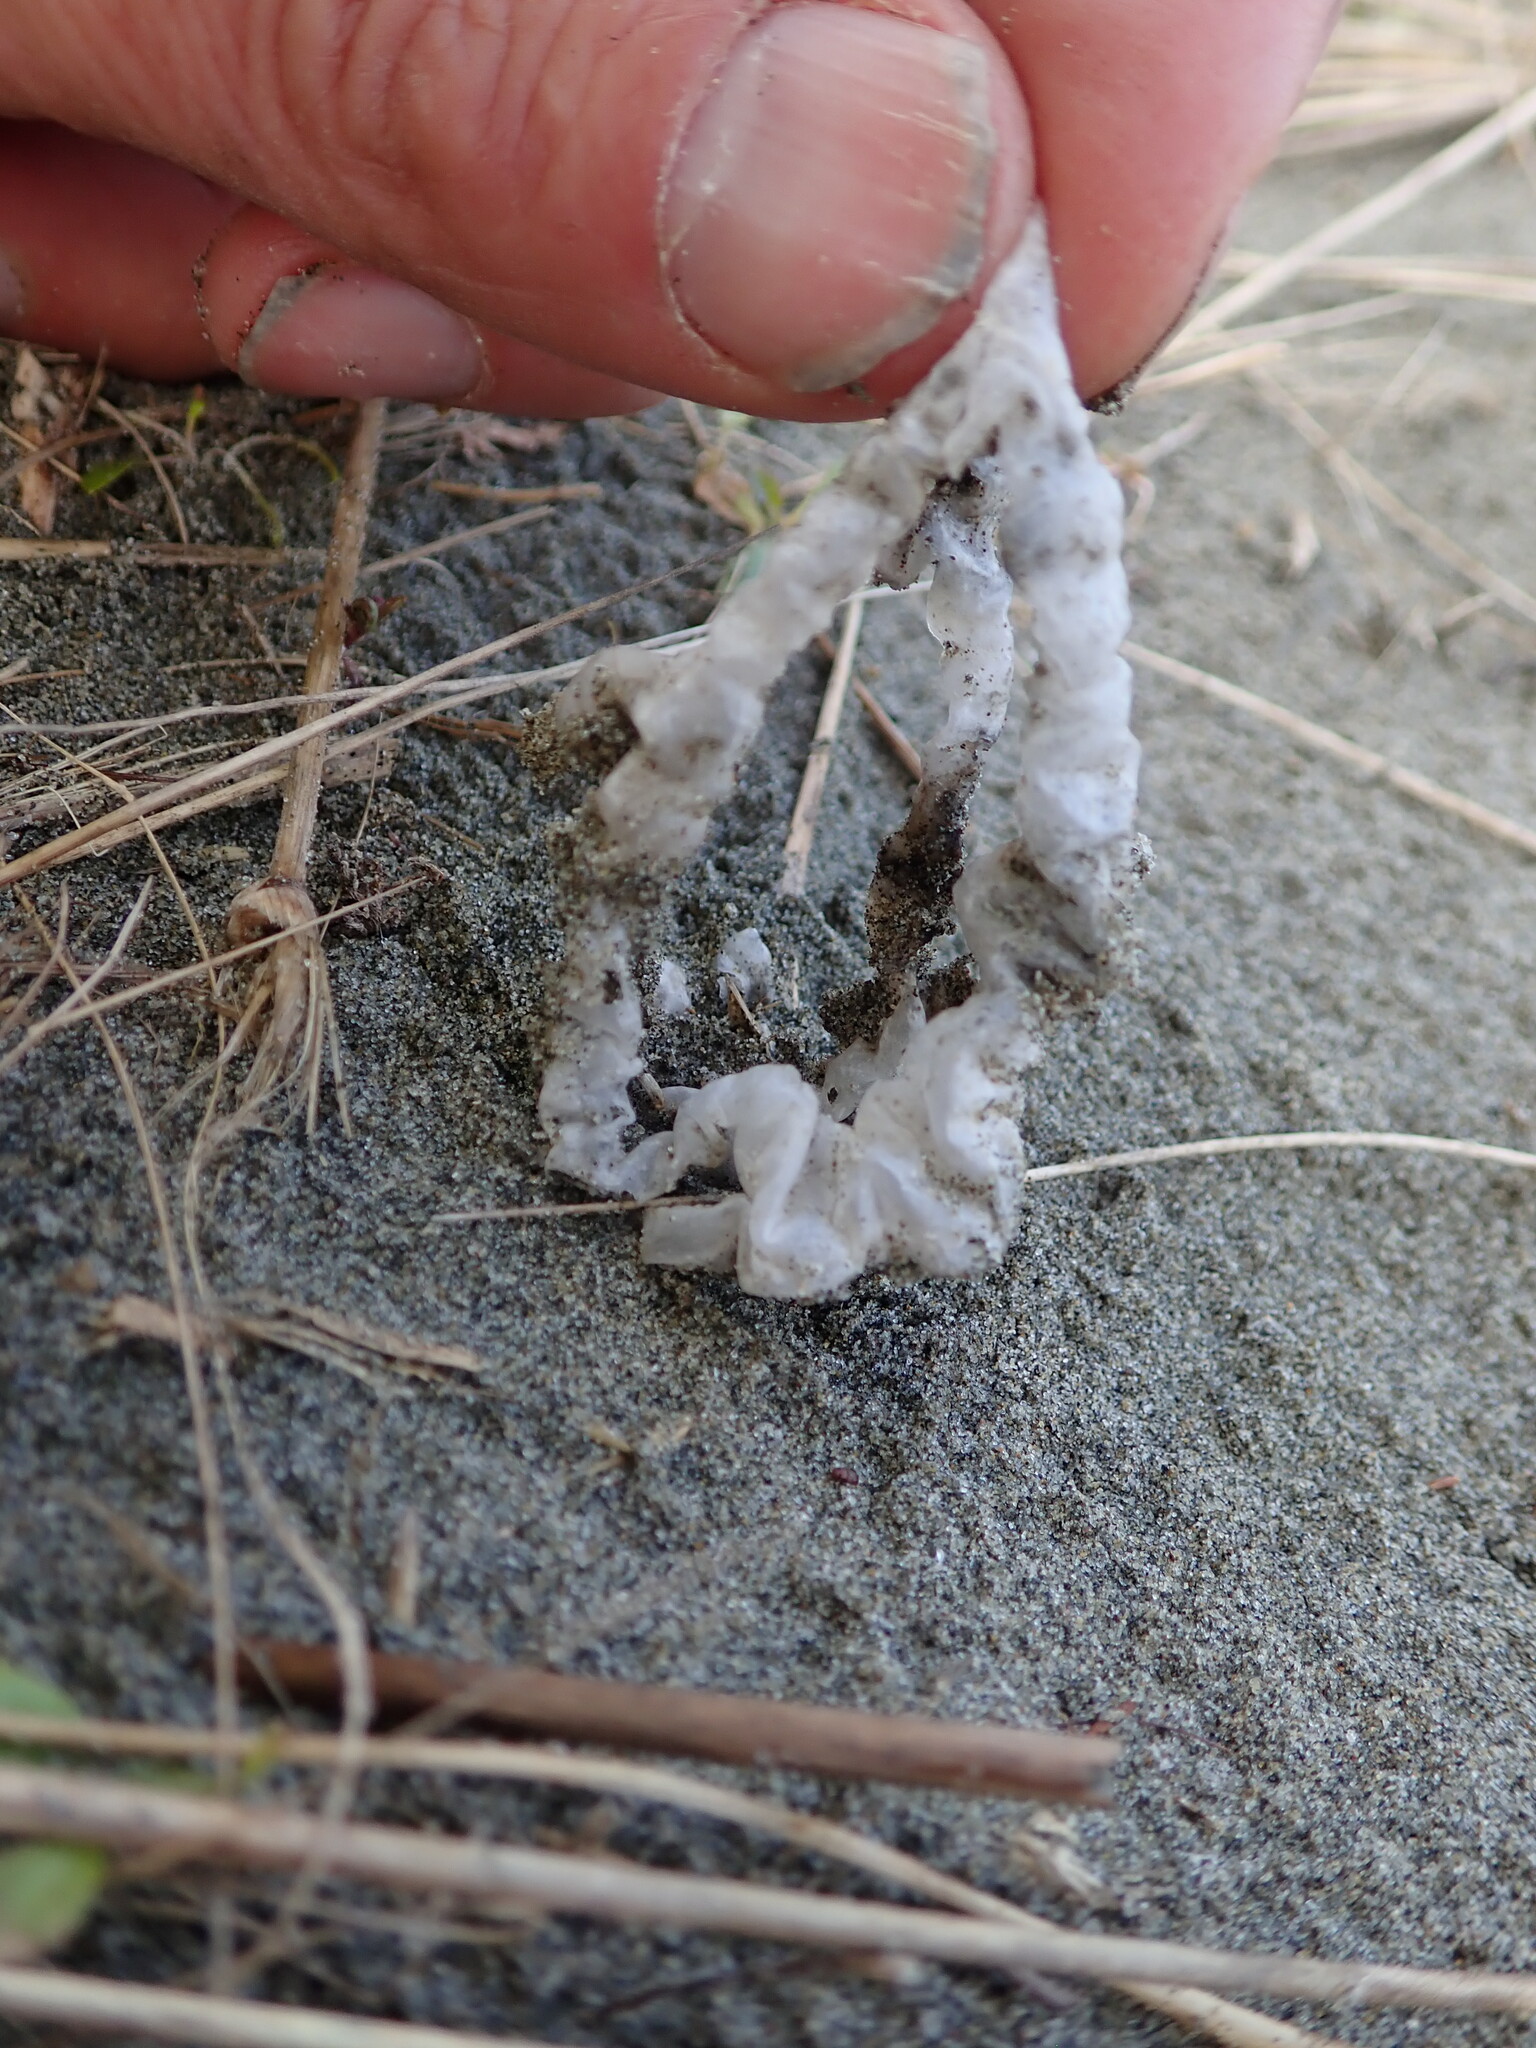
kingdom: Fungi
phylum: Basidiomycota
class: Agaricomycetes
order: Phallales
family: Phallaceae
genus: Ileodictyon
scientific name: Ileodictyon cibarium
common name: Basket fungus
